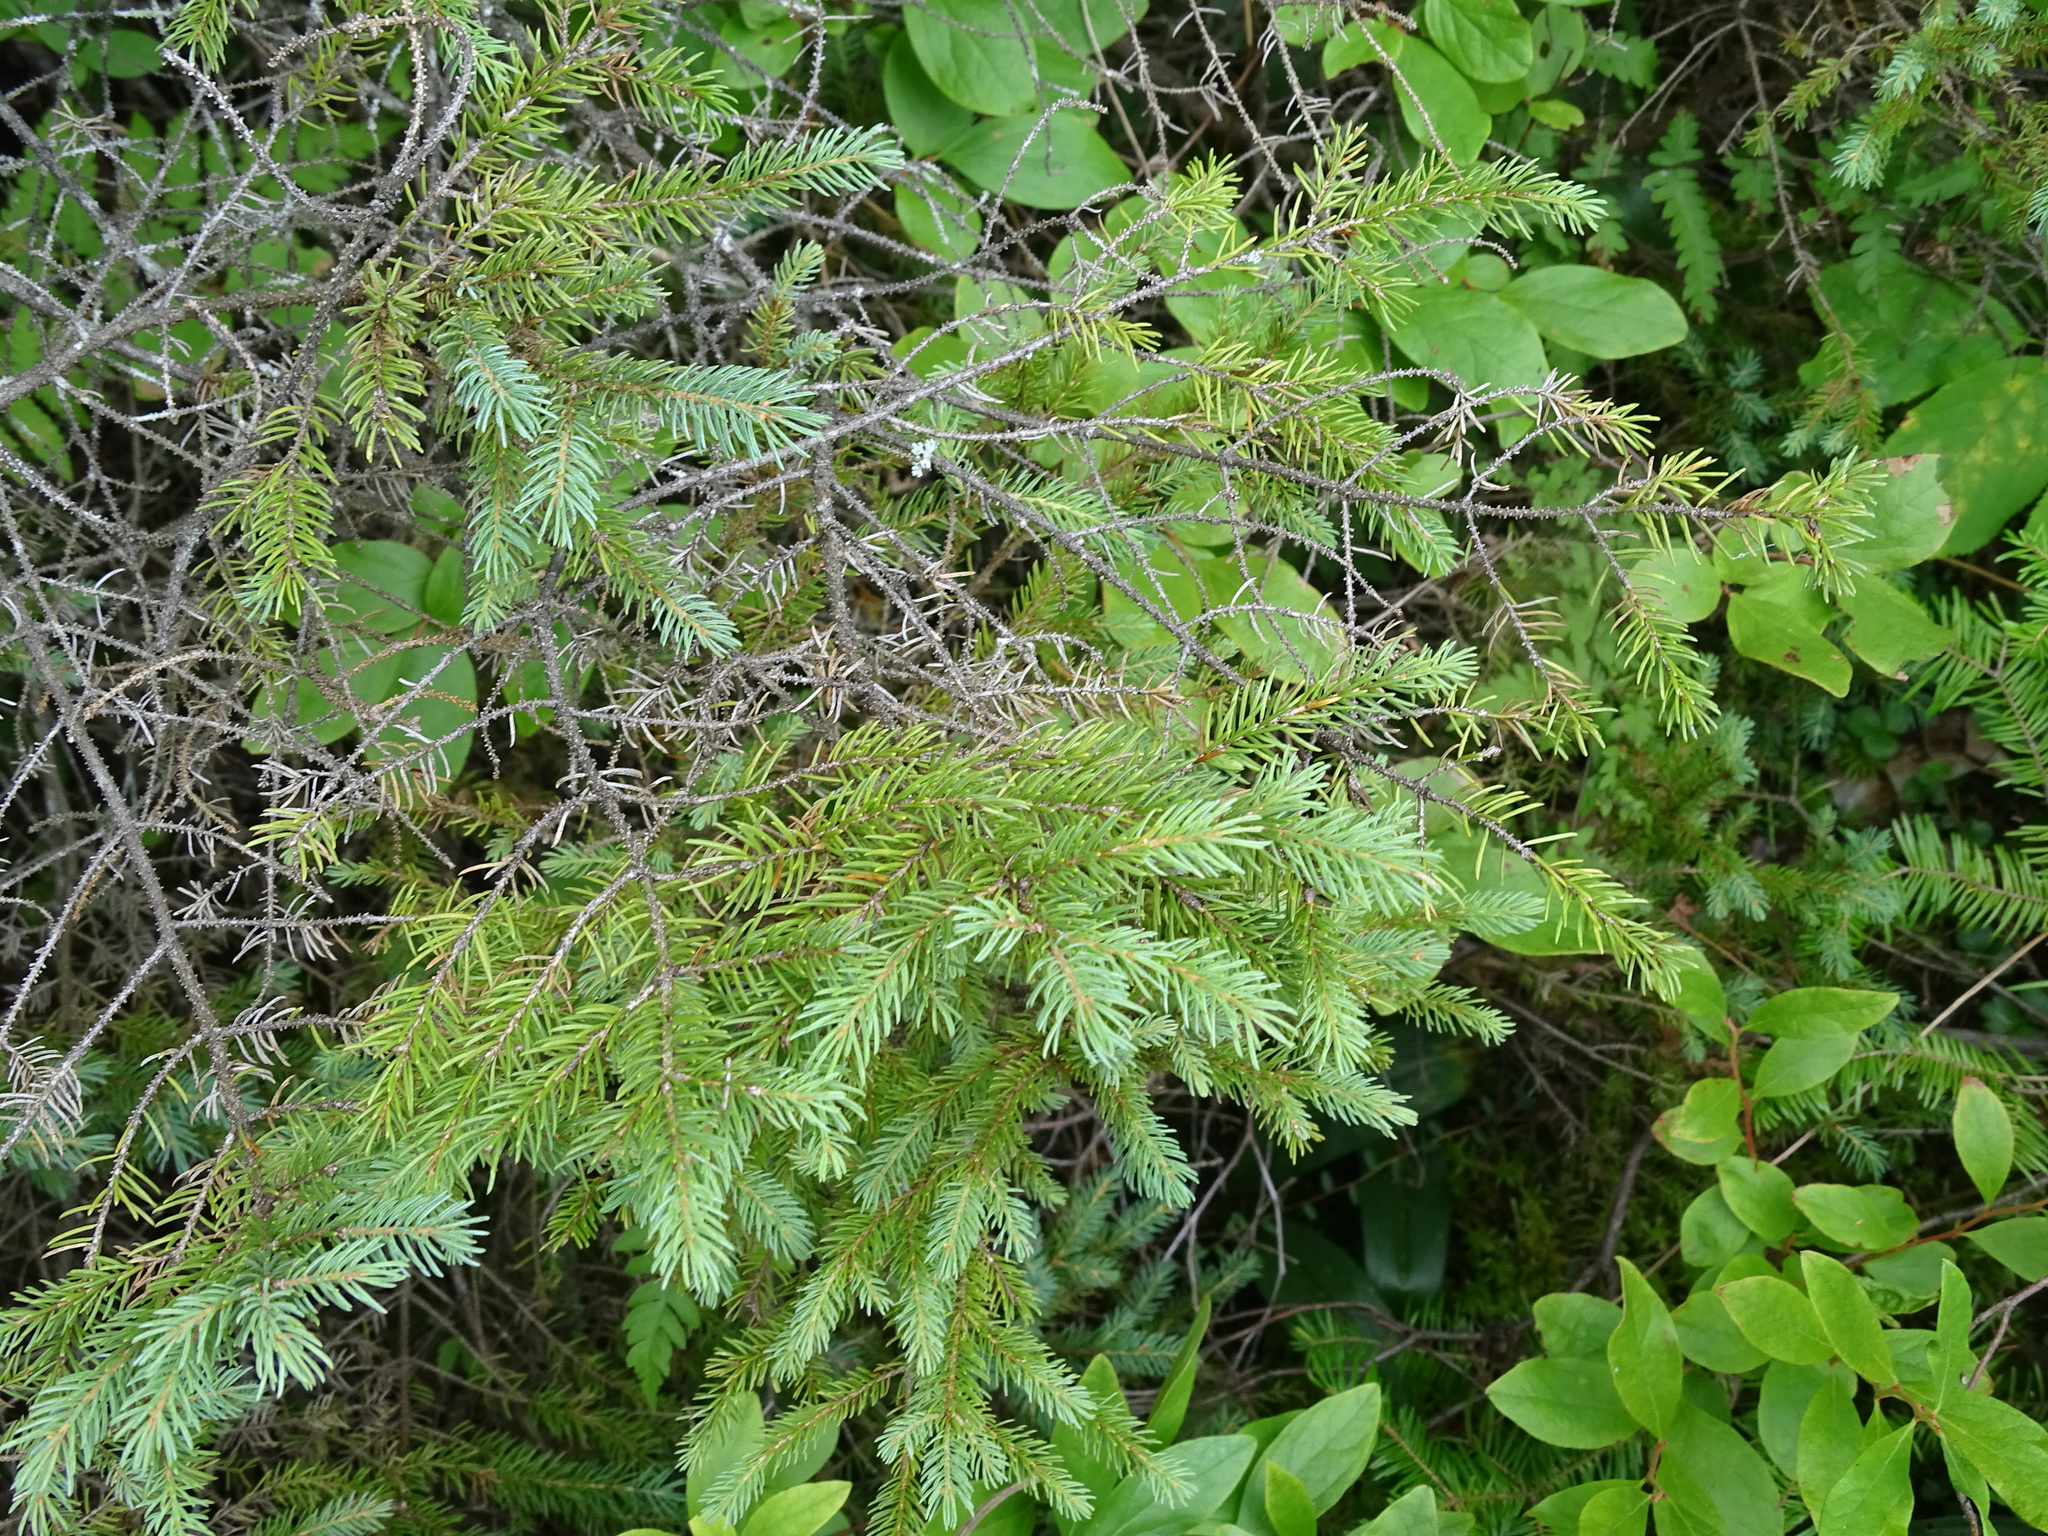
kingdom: Plantae
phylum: Tracheophyta
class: Pinopsida
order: Pinales
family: Pinaceae
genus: Picea
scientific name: Picea mariana
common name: Black spruce
